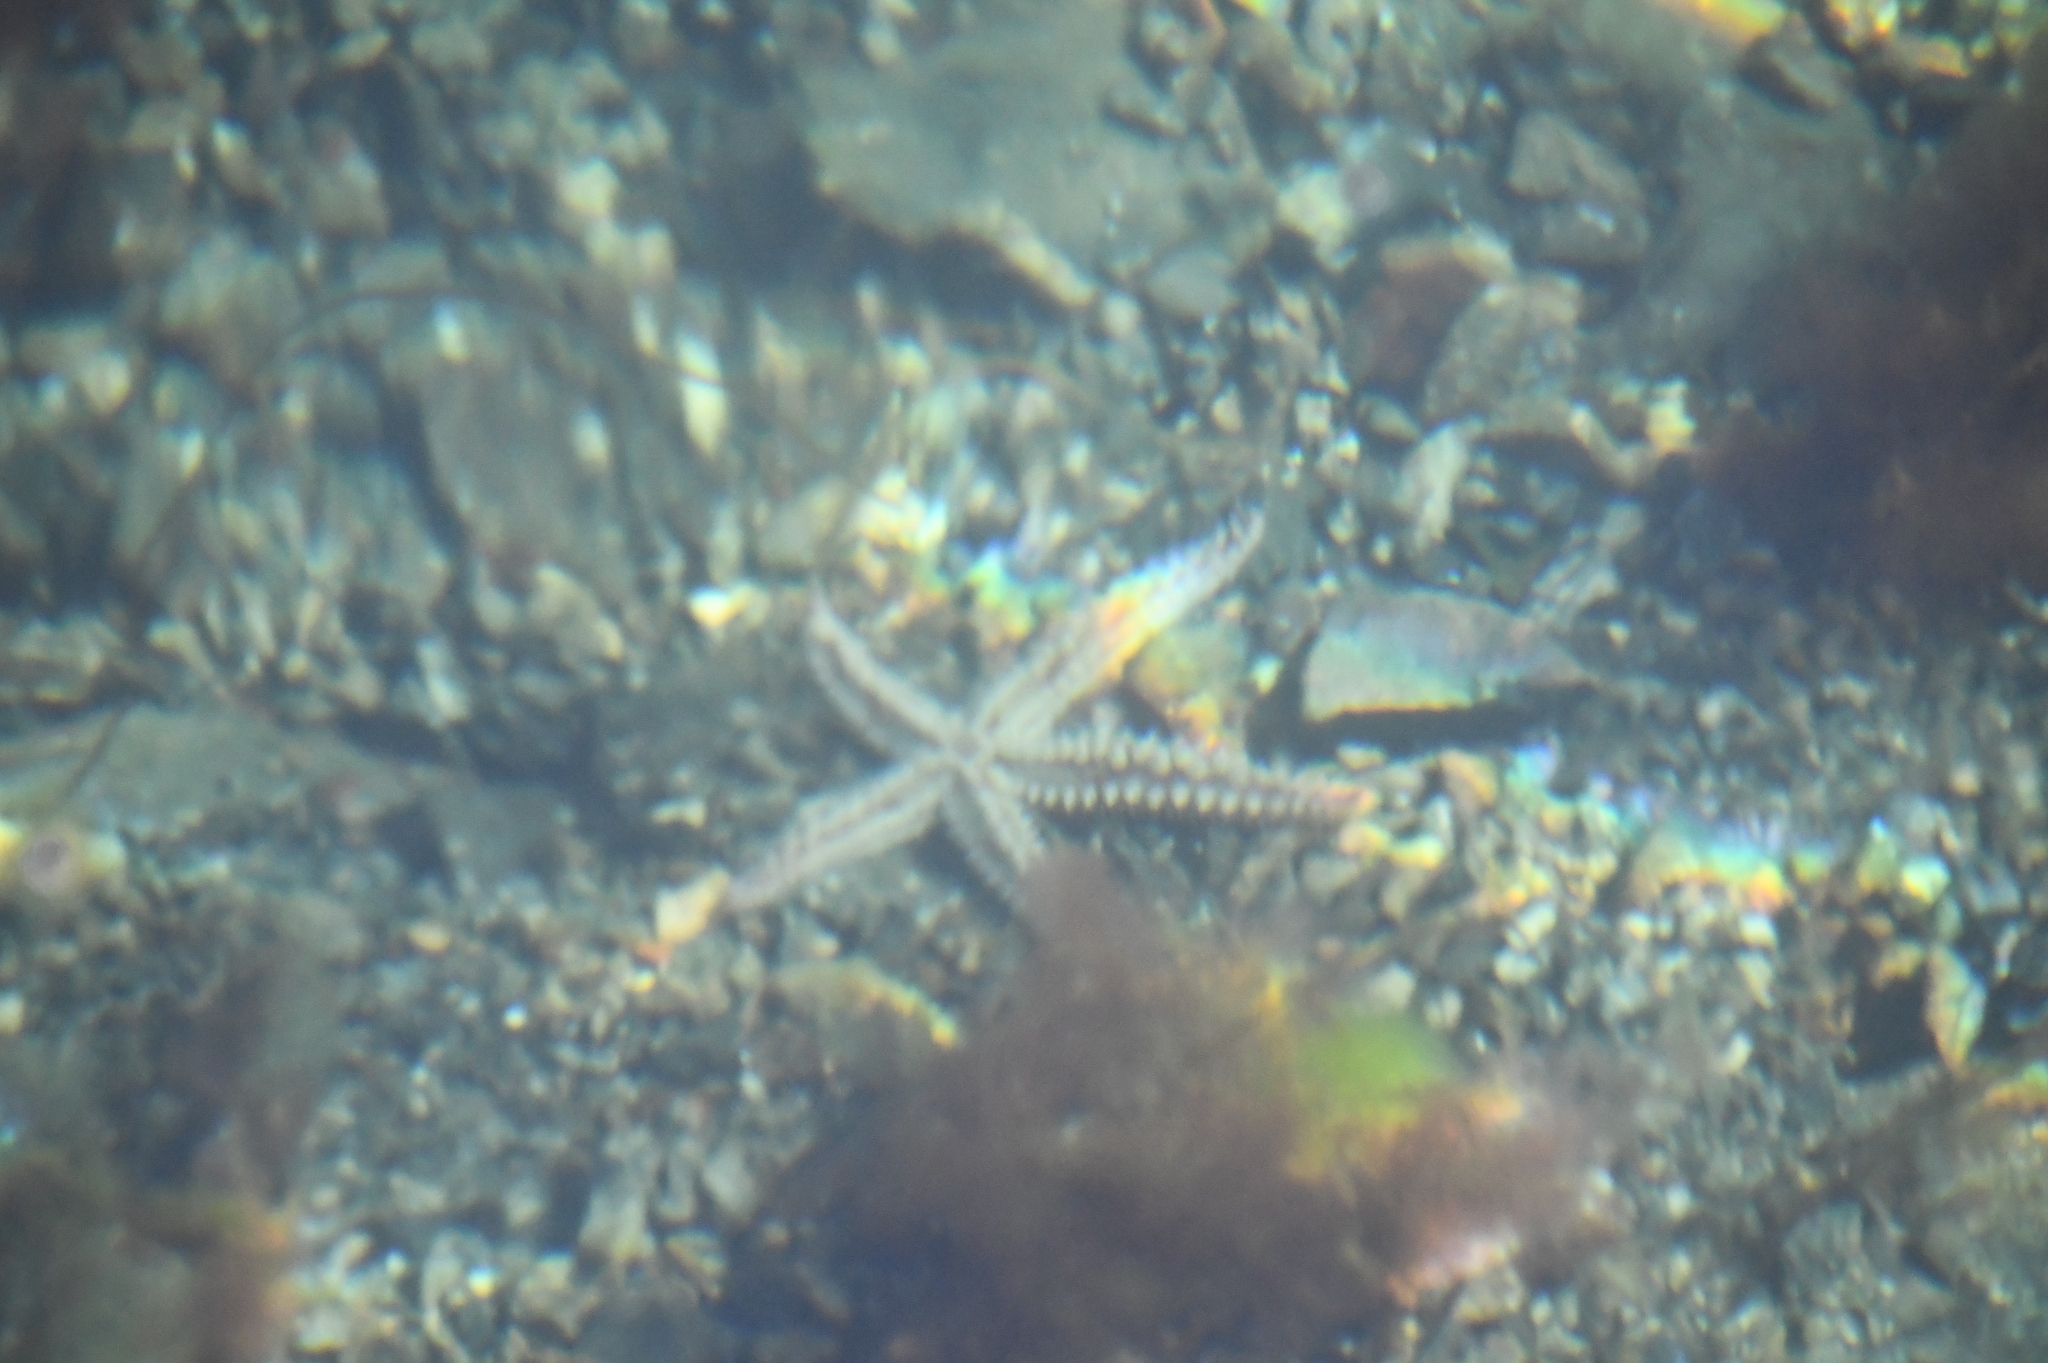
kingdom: Animalia
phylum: Echinodermata
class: Asteroidea
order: Forcipulatida
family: Asteriidae
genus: Marthasterias
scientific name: Marthasterias glacialis
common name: Spiny starfish
